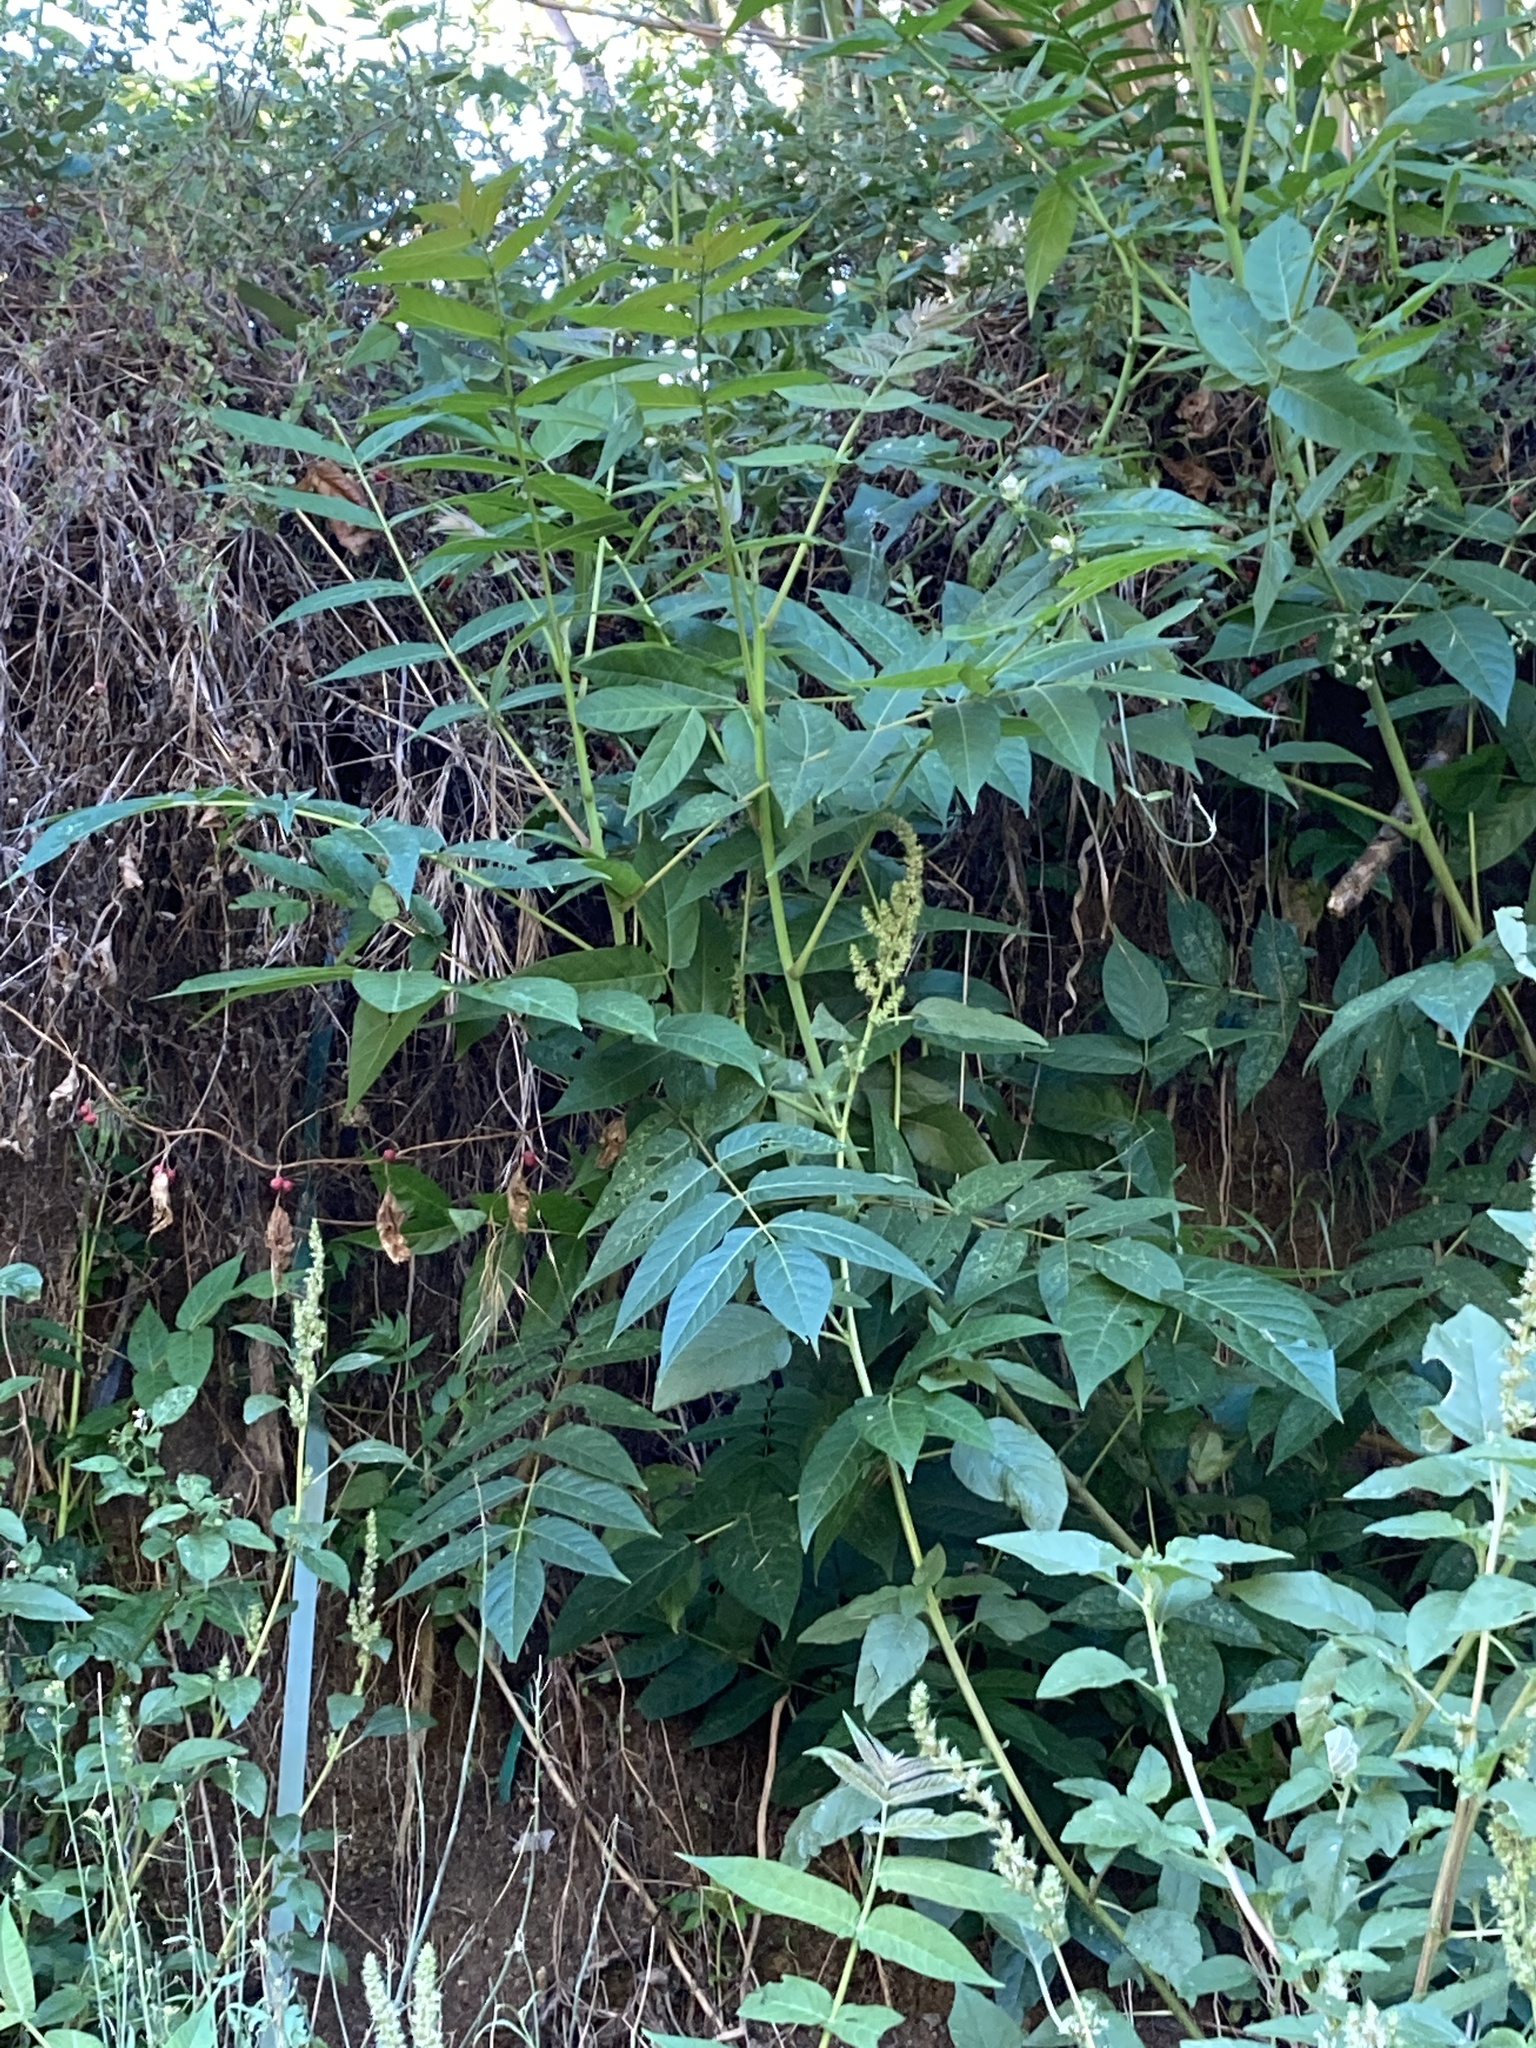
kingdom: Plantae
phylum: Tracheophyta
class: Magnoliopsida
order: Sapindales
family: Simaroubaceae
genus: Ailanthus
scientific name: Ailanthus altissima
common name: Tree-of-heaven
